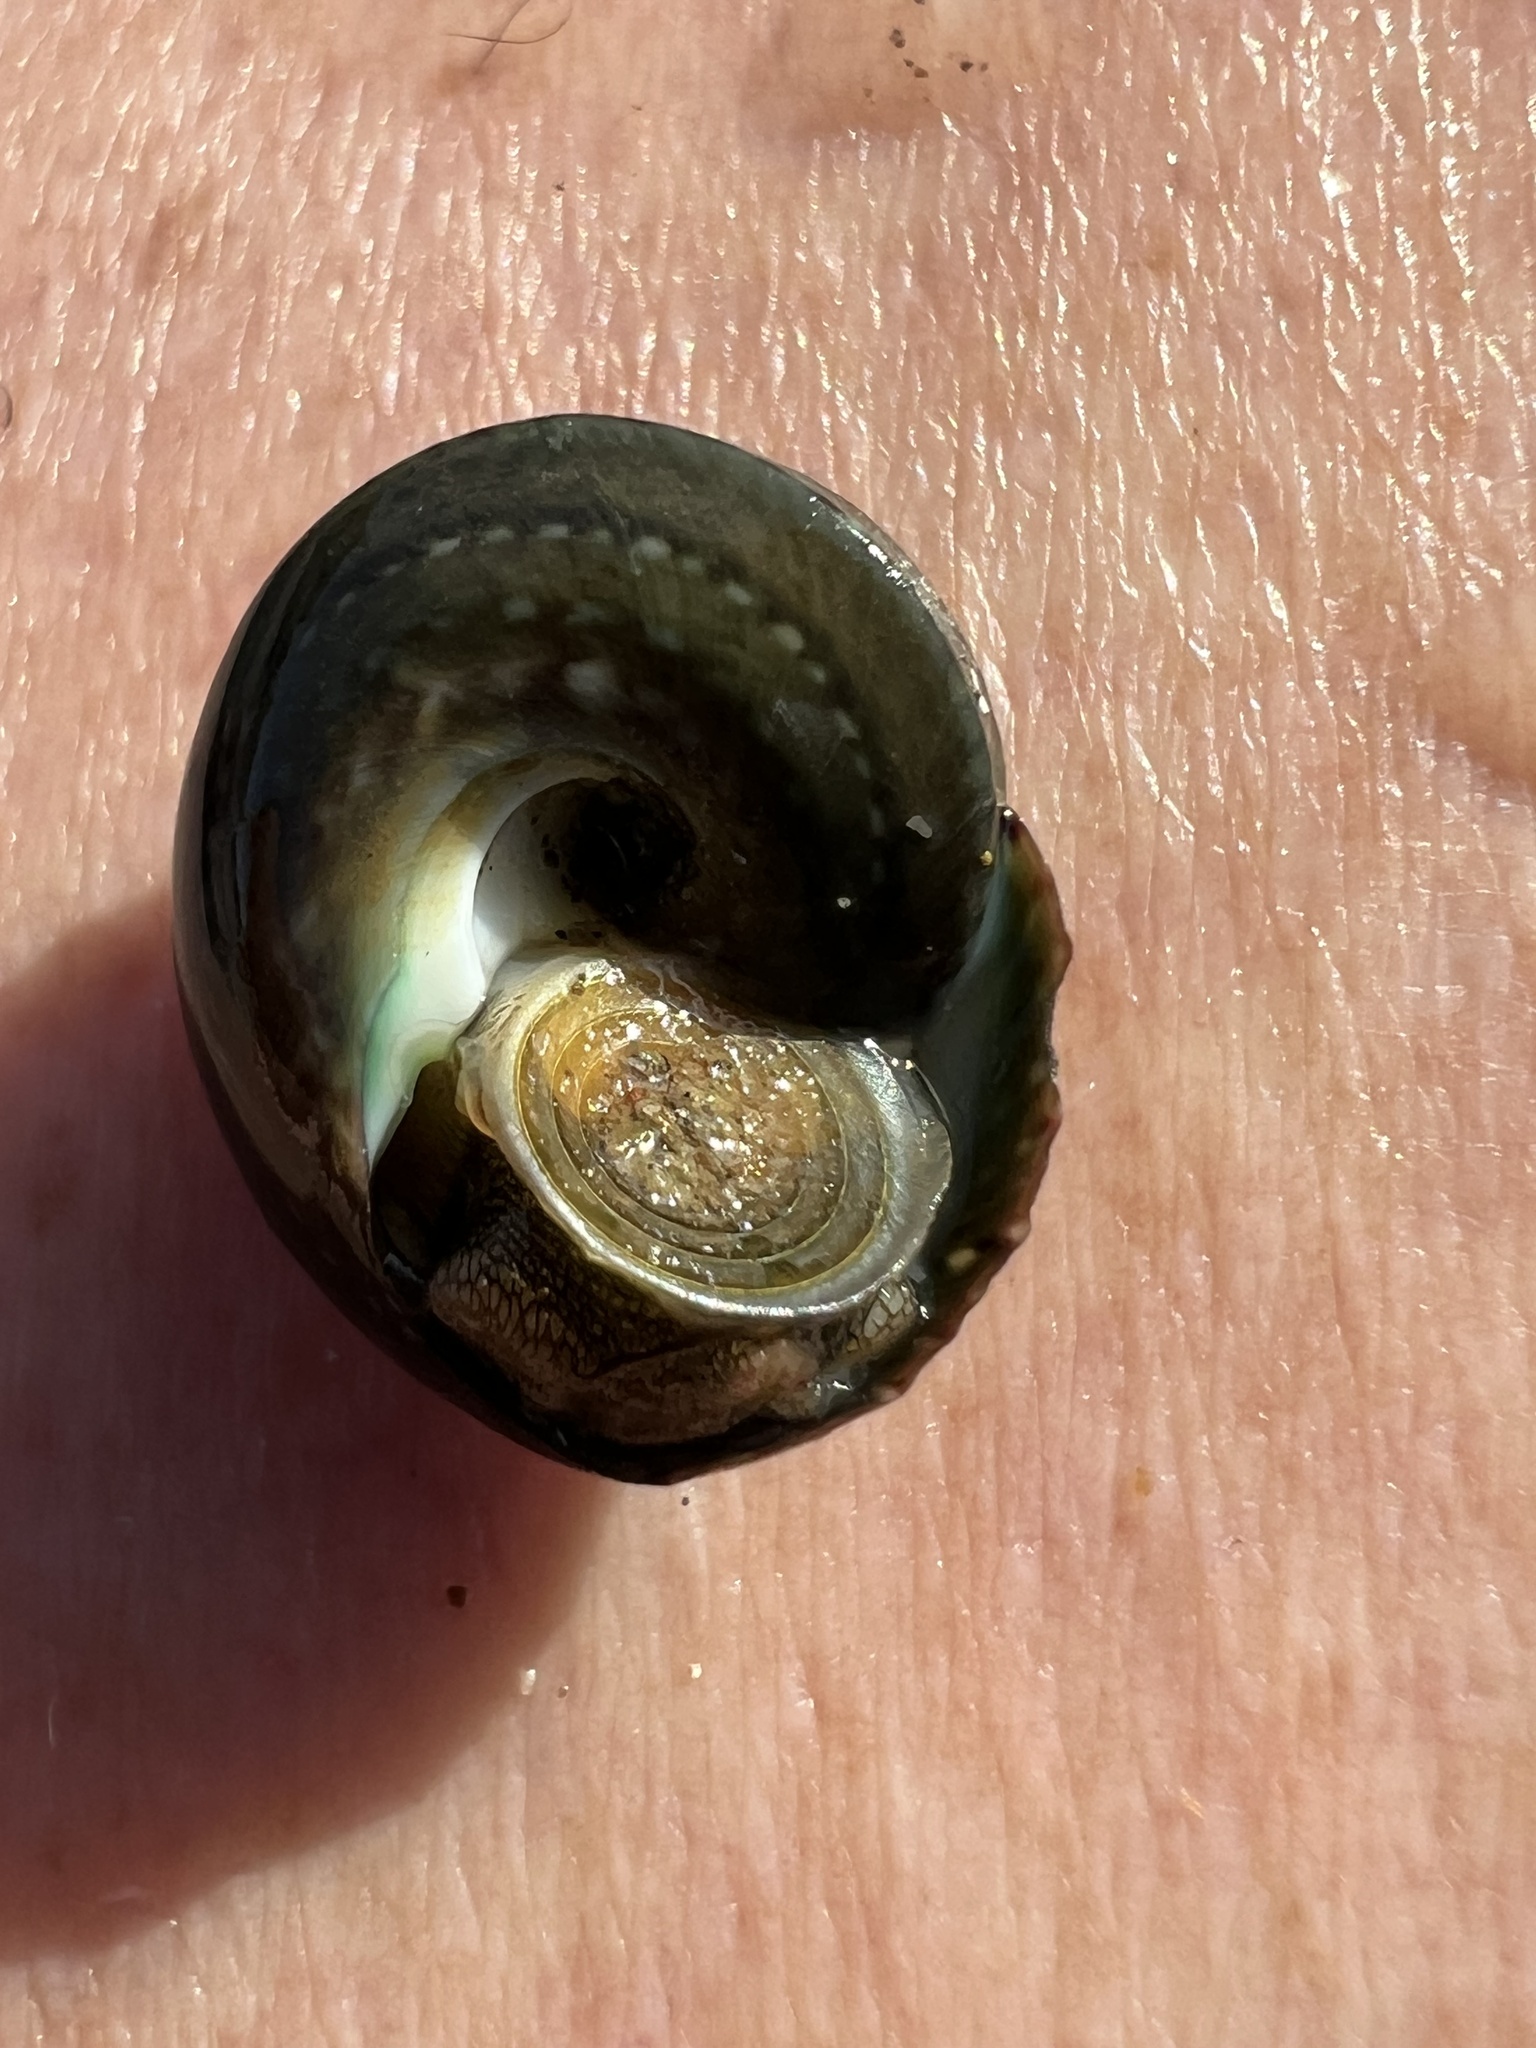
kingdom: Animalia
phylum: Mollusca
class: Gastropoda
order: Trochida
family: Tegulidae
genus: Tegula
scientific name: Tegula verrucosa
